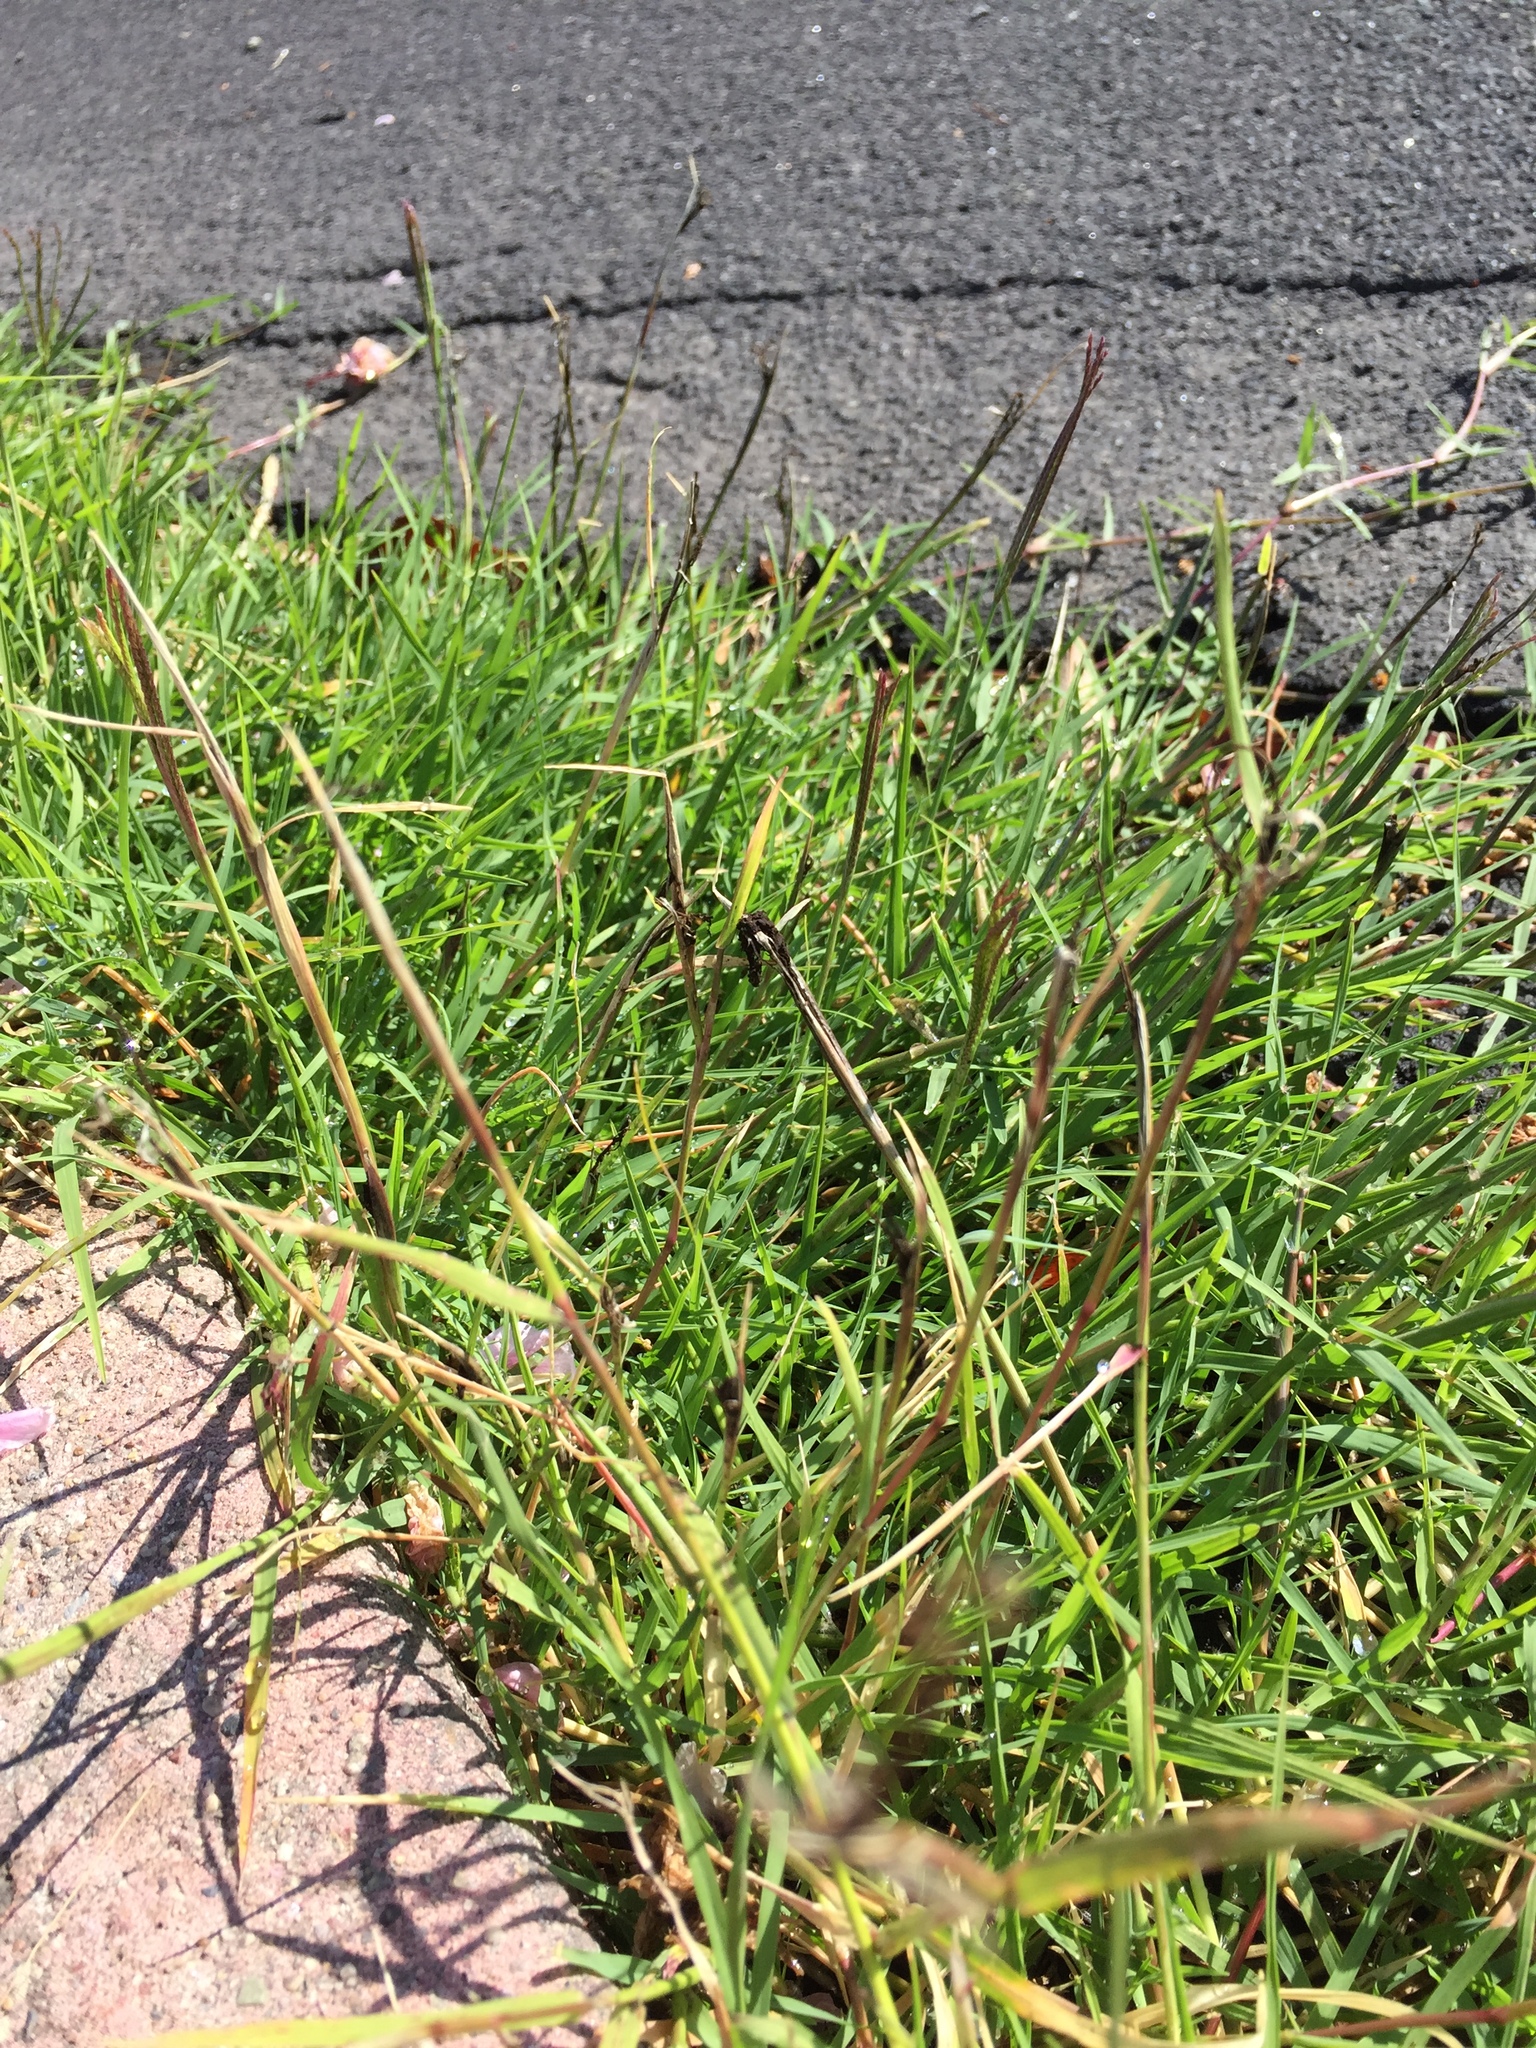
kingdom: Fungi
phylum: Basidiomycota
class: Ustilaginomycetes
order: Ustilaginales
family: Ustilaginaceae
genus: Ustilago
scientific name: Ustilago cynodontis
